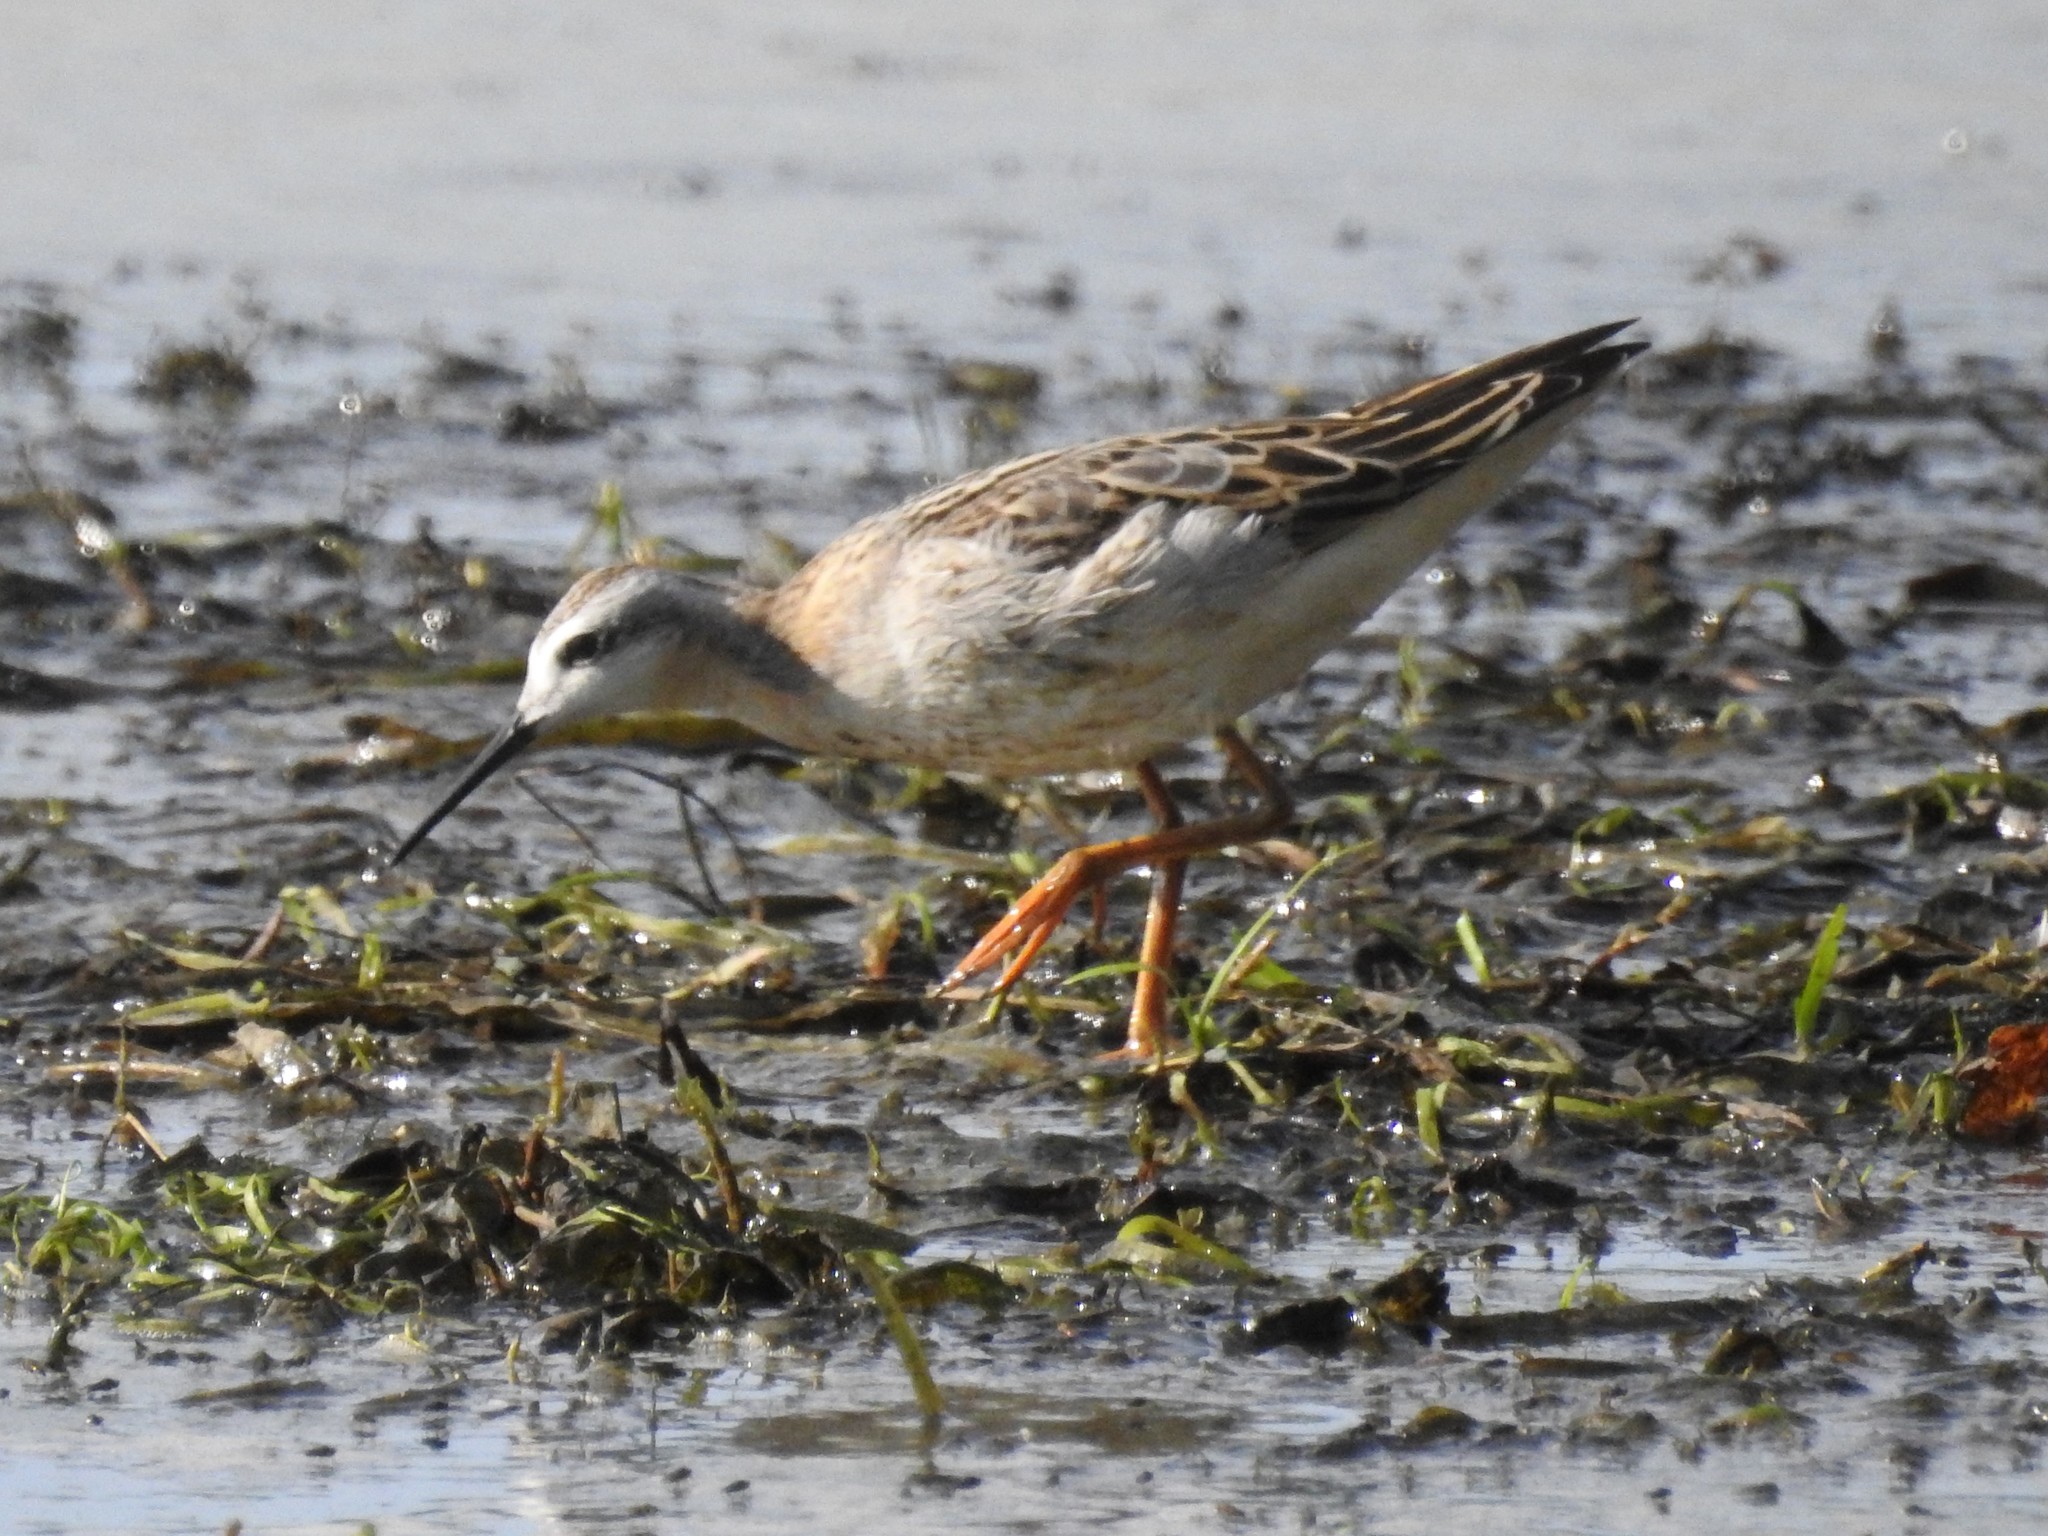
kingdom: Animalia
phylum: Chordata
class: Aves
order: Charadriiformes
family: Scolopacidae
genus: Phalaropus
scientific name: Phalaropus tricolor
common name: Wilson's phalarope
